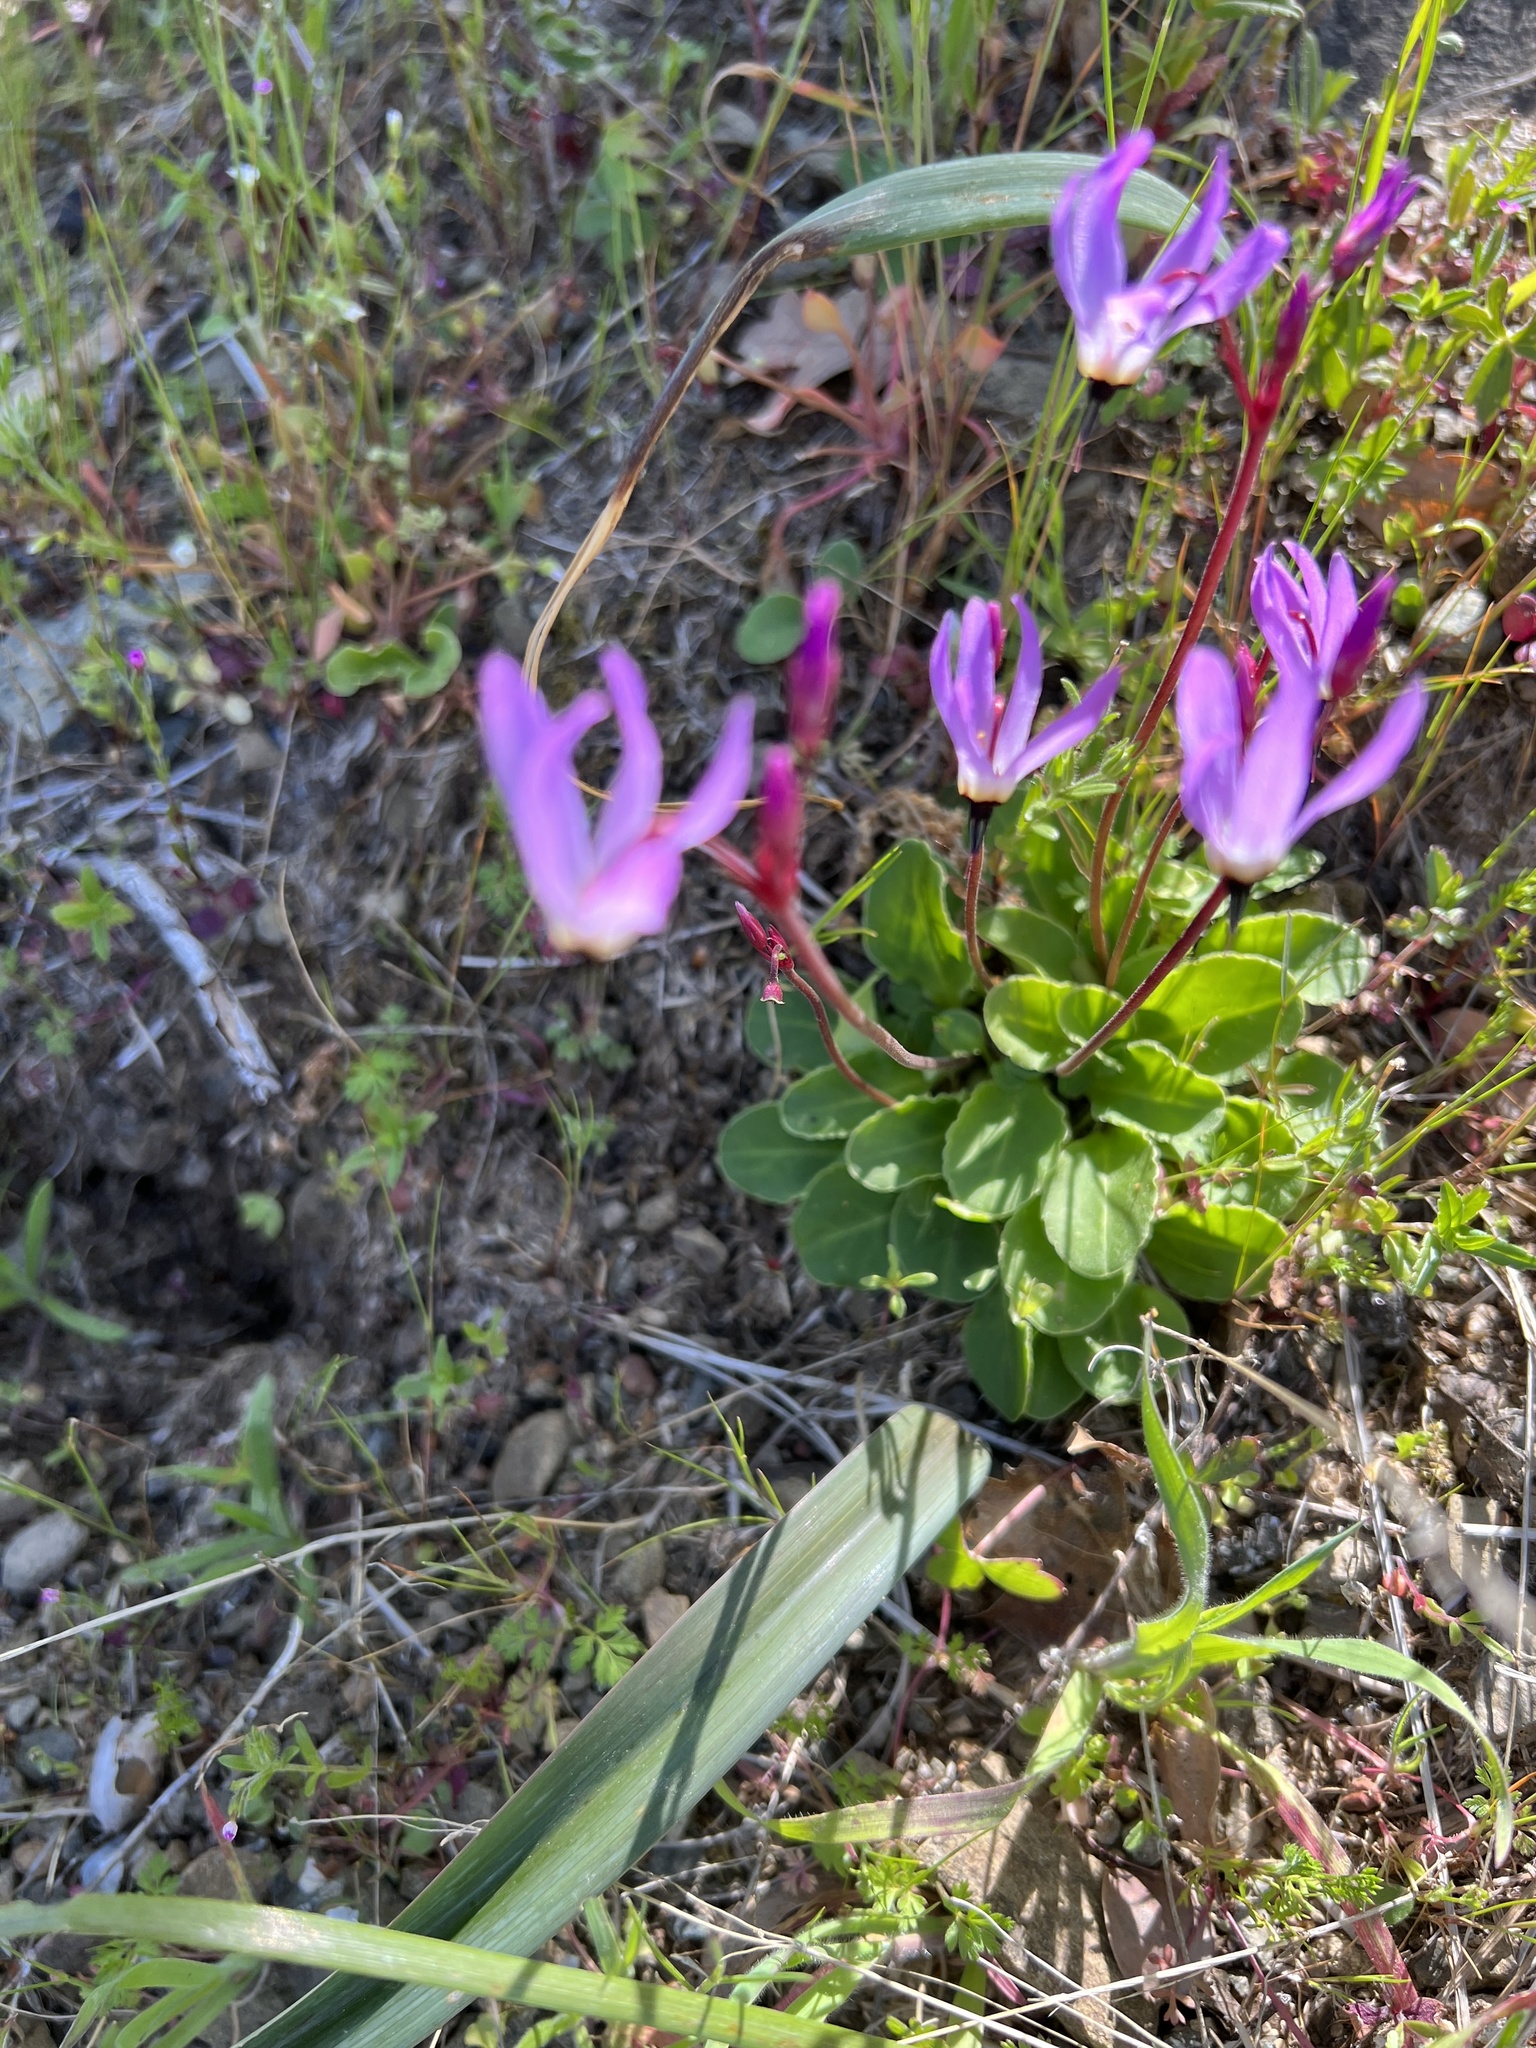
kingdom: Plantae
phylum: Tracheophyta
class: Magnoliopsida
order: Ericales
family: Primulaceae
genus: Dodecatheon
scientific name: Dodecatheon hendersonii
